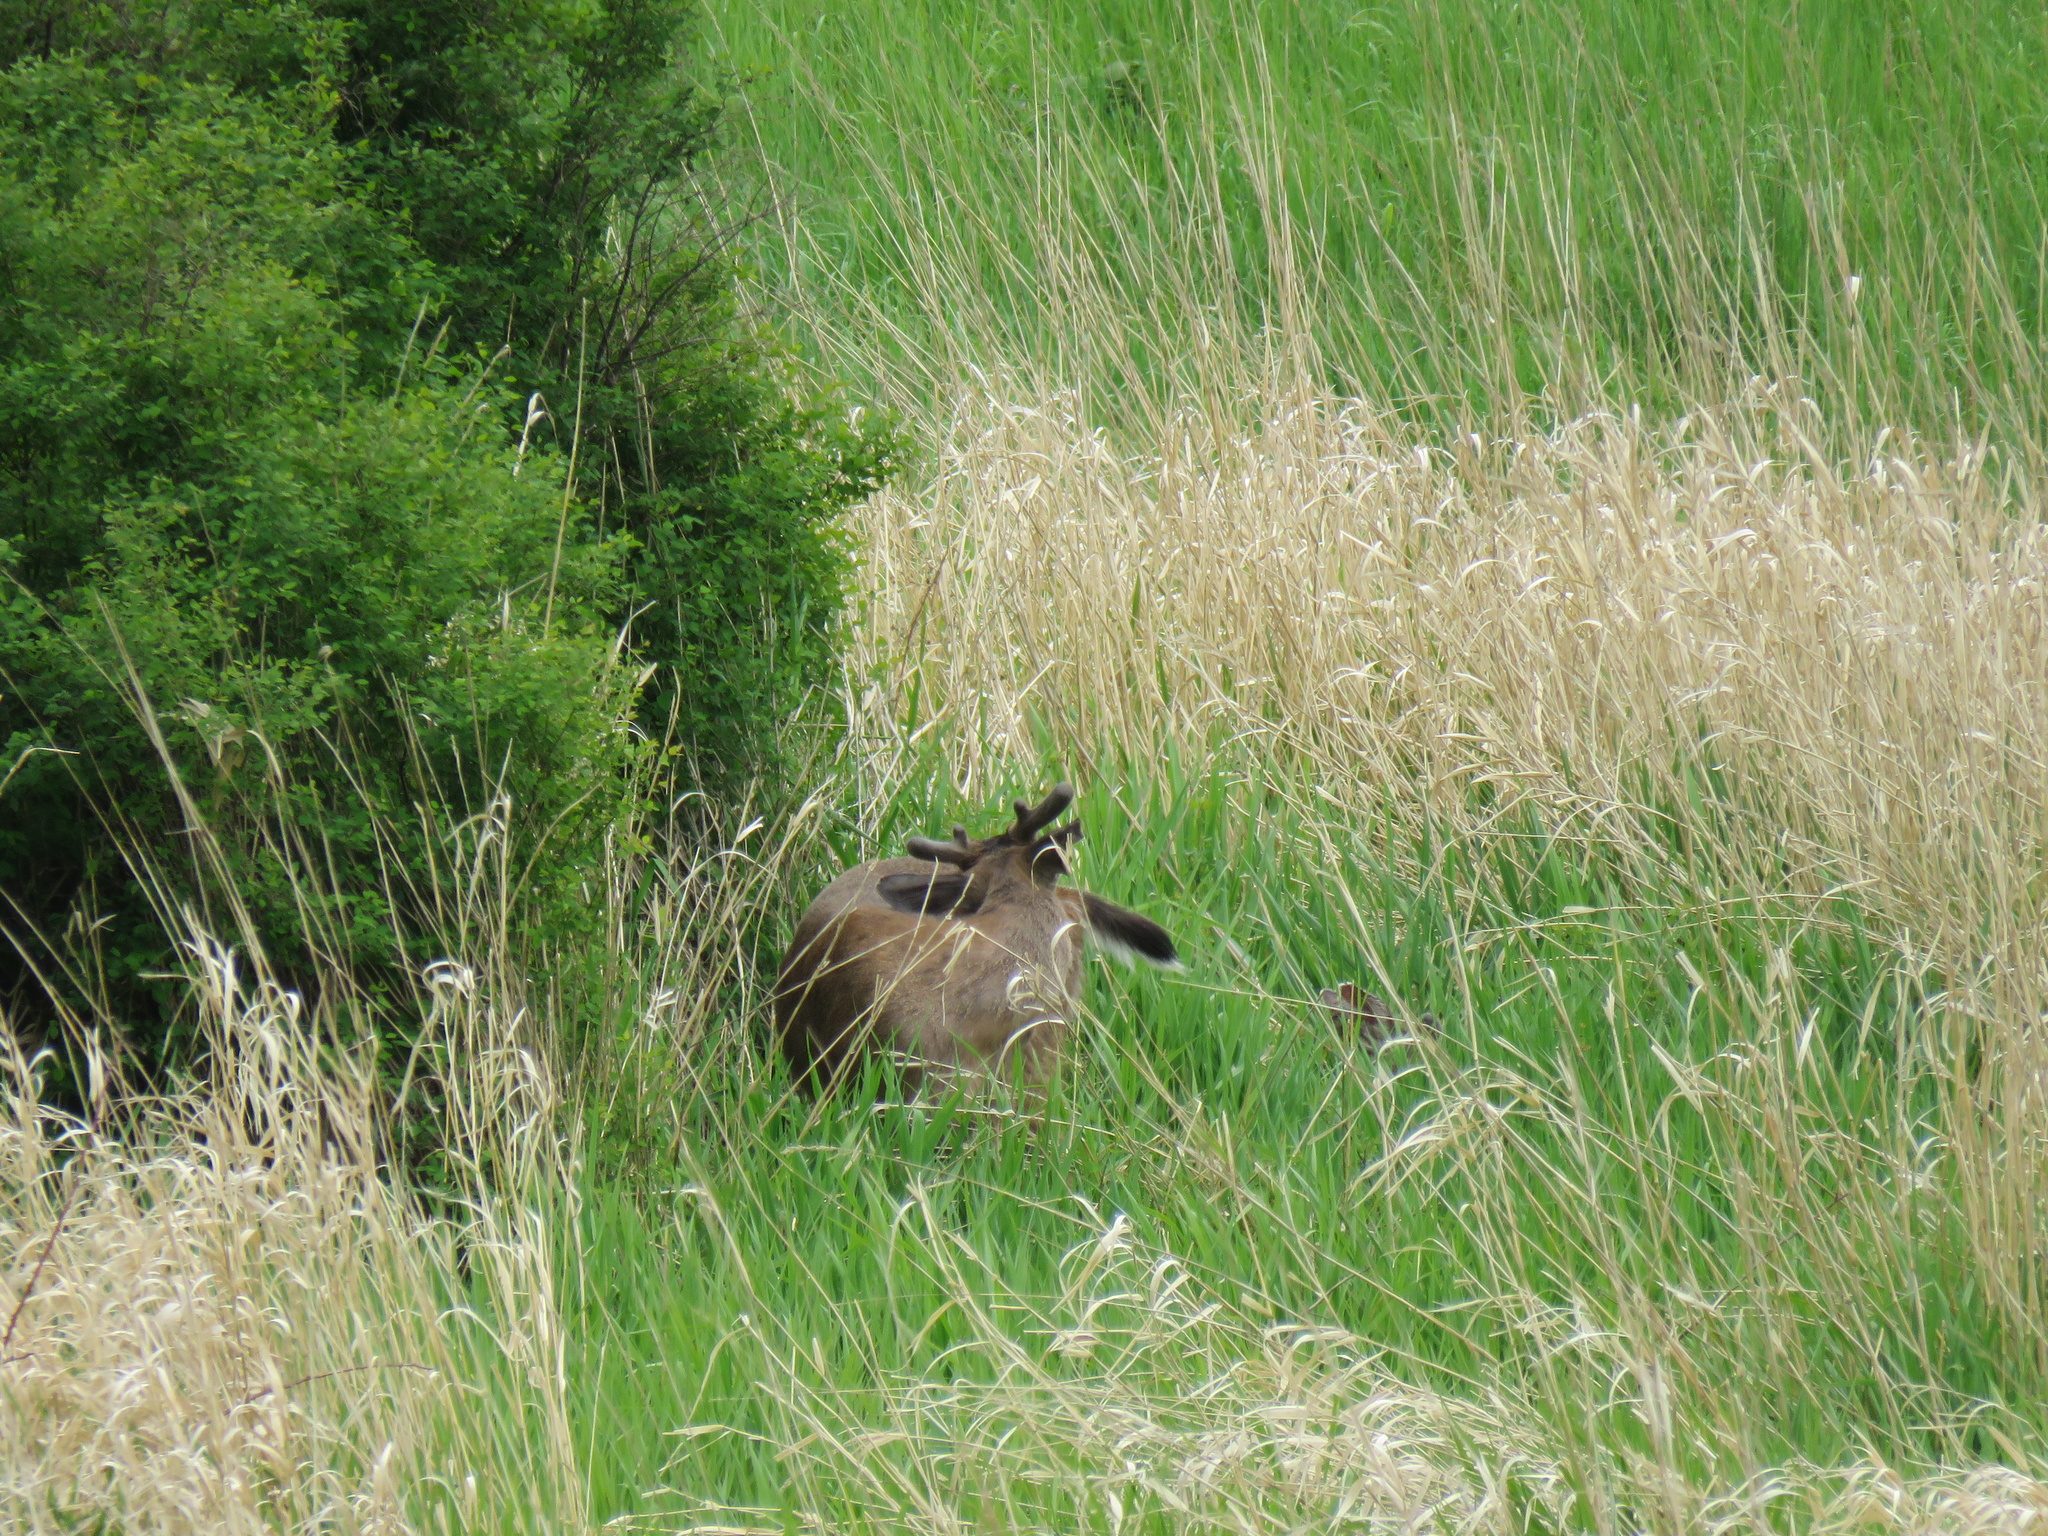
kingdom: Animalia
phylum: Chordata
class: Mammalia
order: Artiodactyla
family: Cervidae
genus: Odocoileus
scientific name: Odocoileus hemionus
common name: Mule deer
